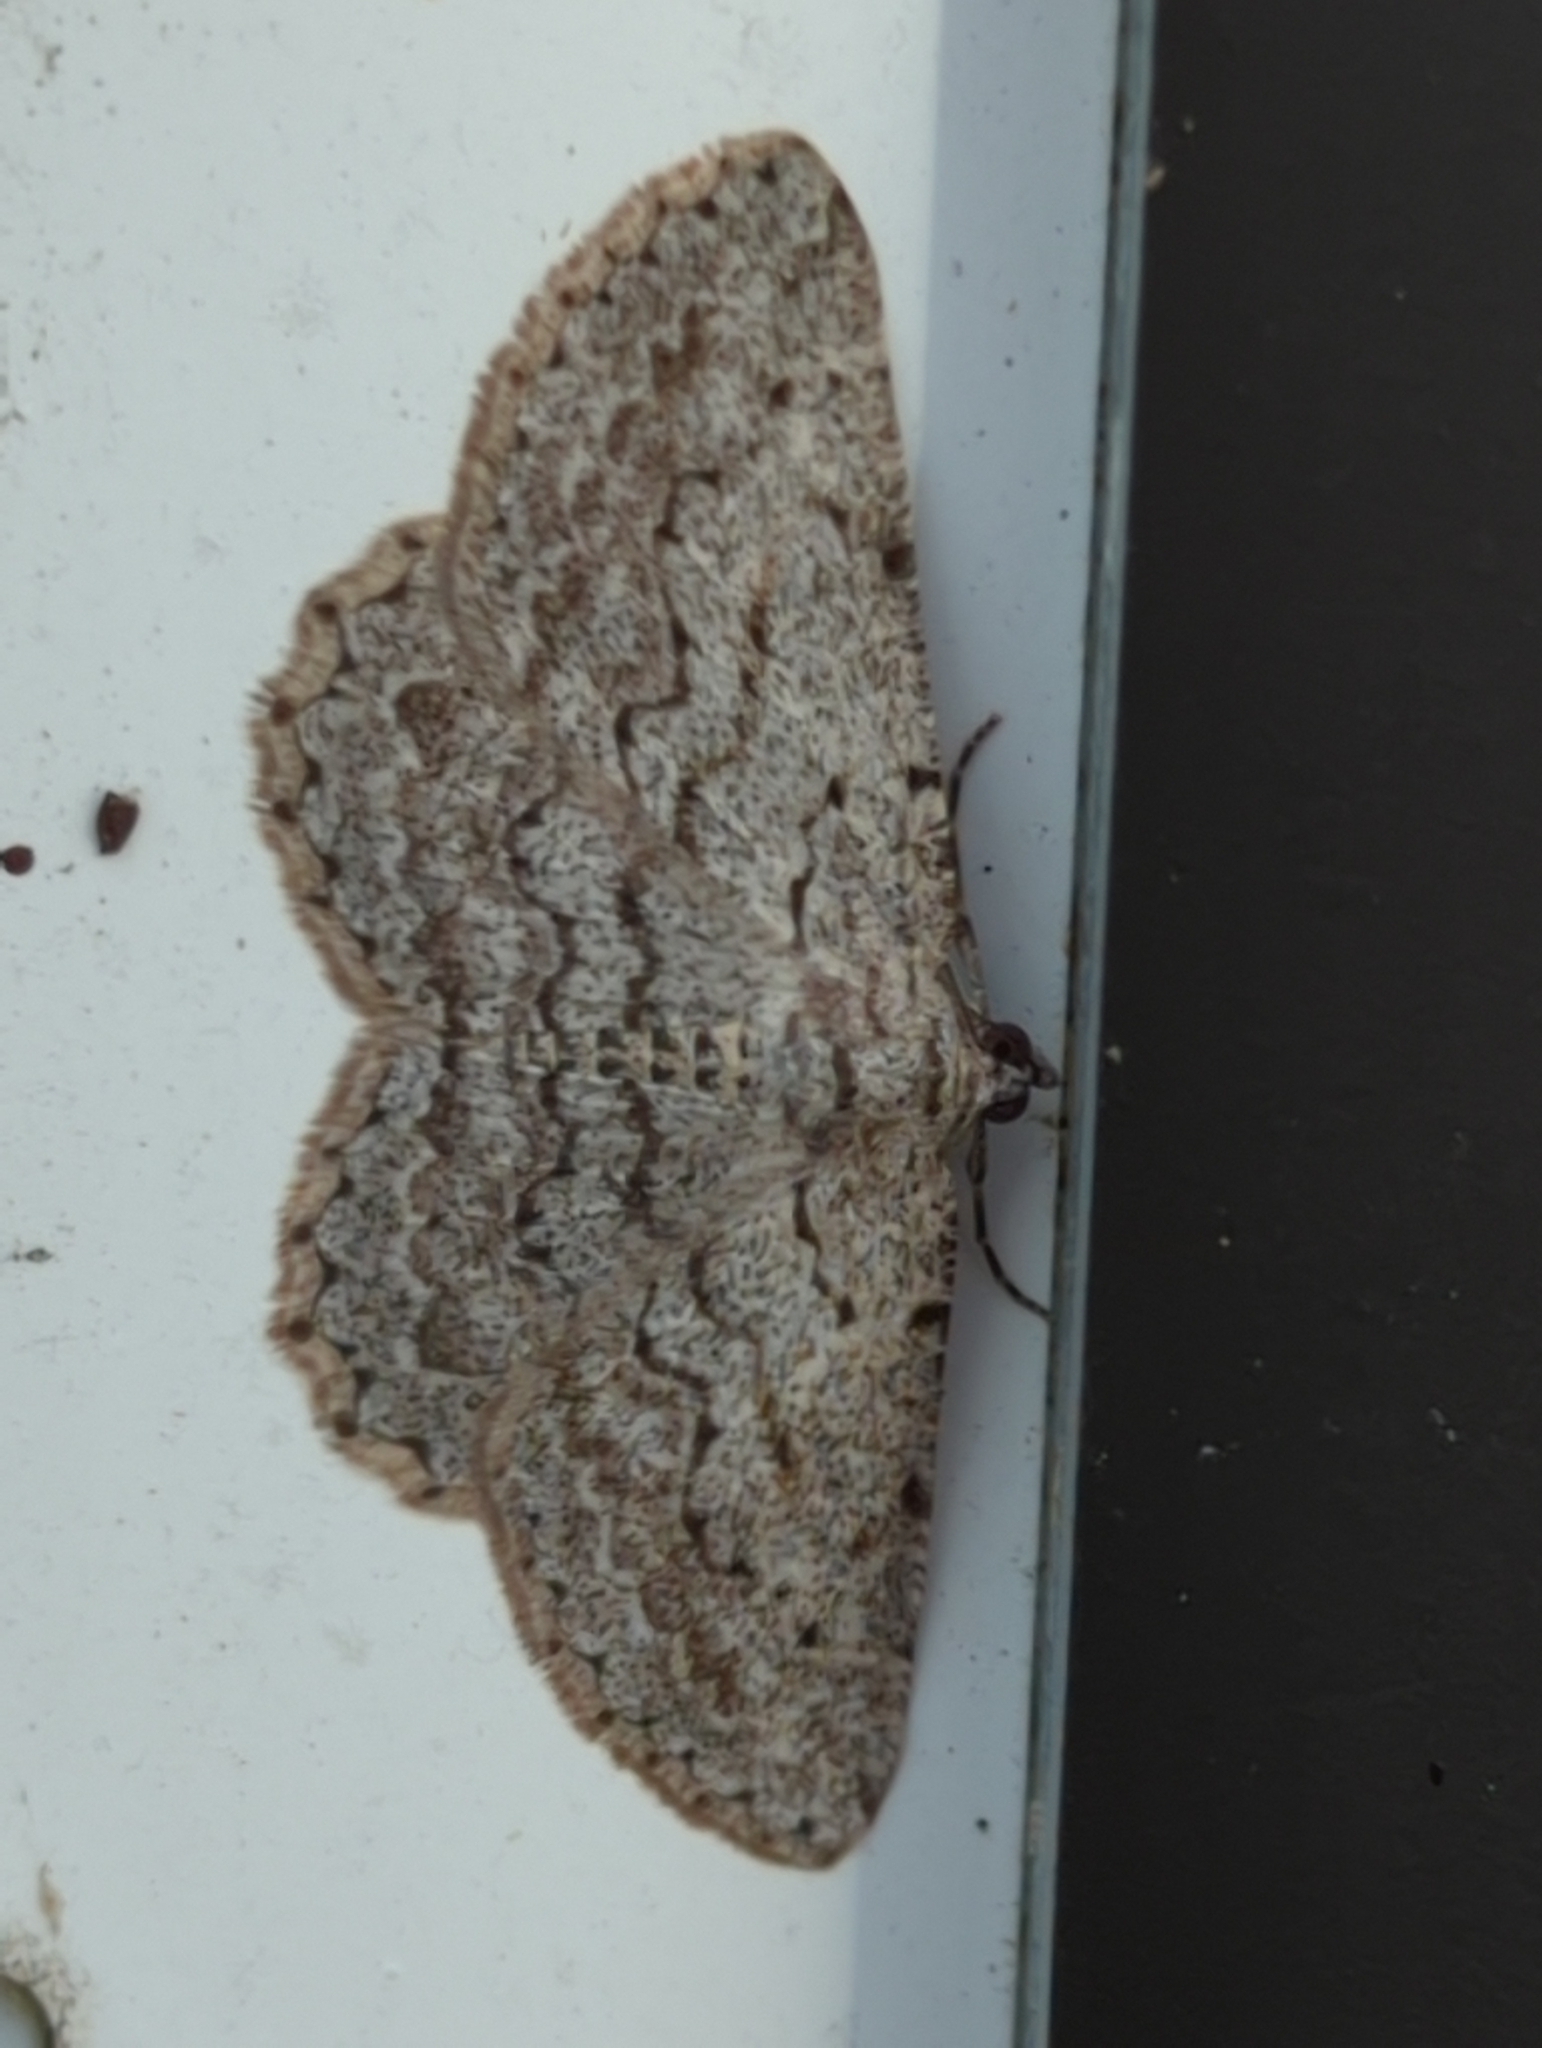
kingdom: Animalia
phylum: Arthropoda
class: Insecta
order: Lepidoptera
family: Geometridae
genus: Psilosticha
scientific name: Psilosticha absorpta
